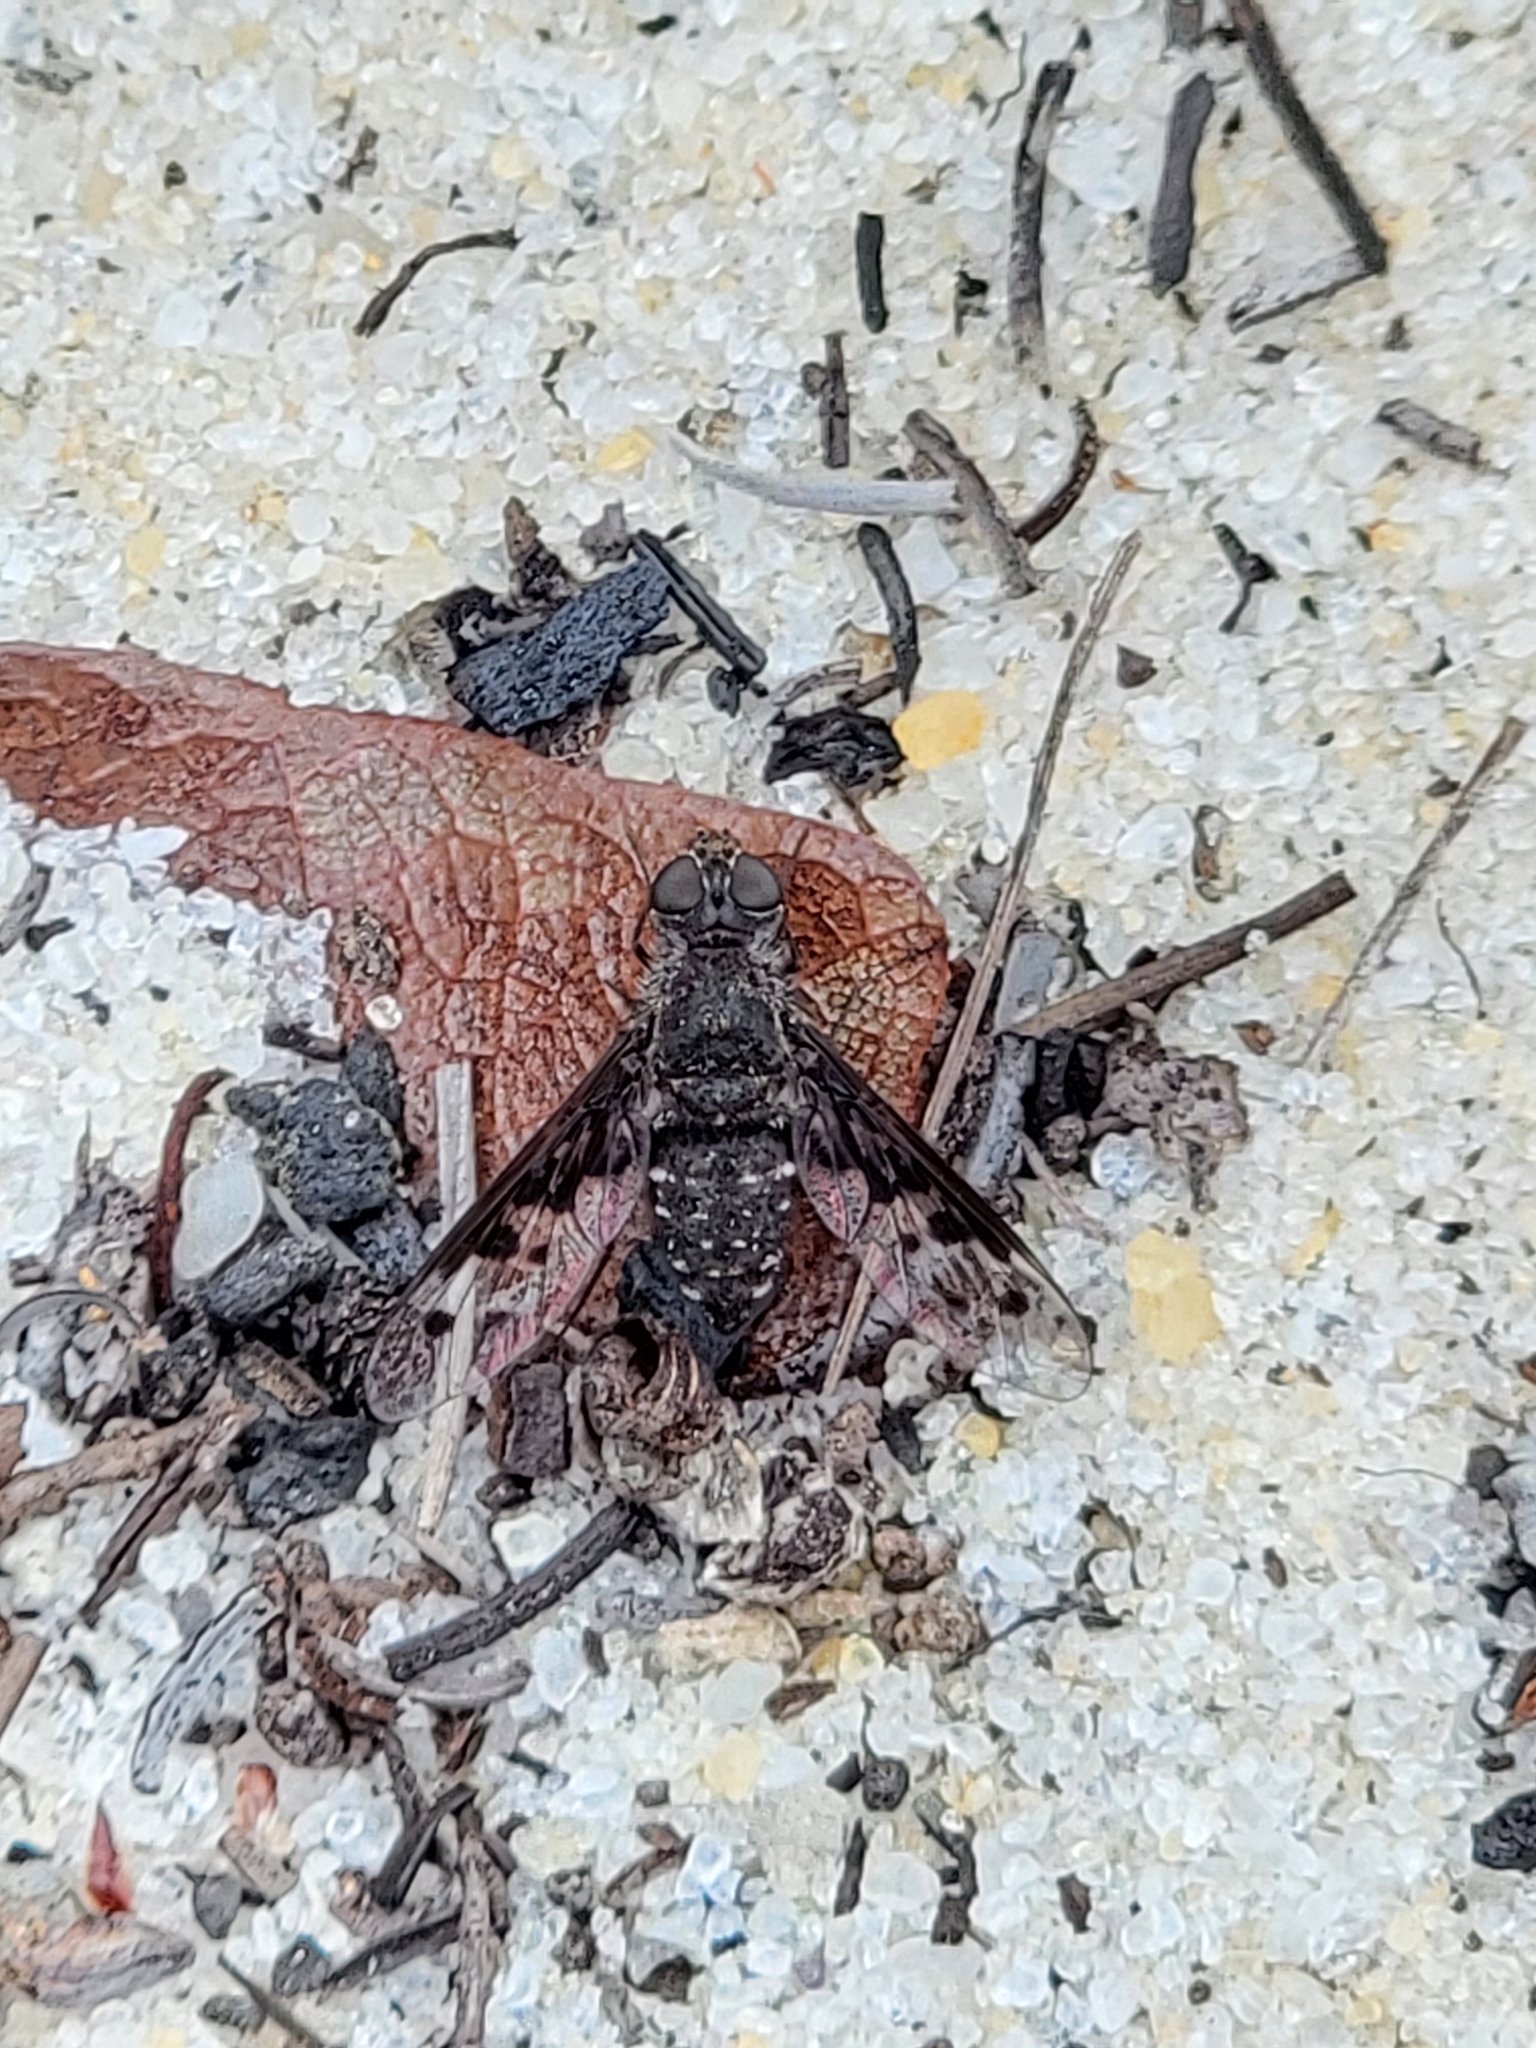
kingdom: Animalia
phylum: Arthropoda
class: Insecta
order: Diptera
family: Bombyliidae
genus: Anthrax
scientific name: Anthrax albofasciatus
